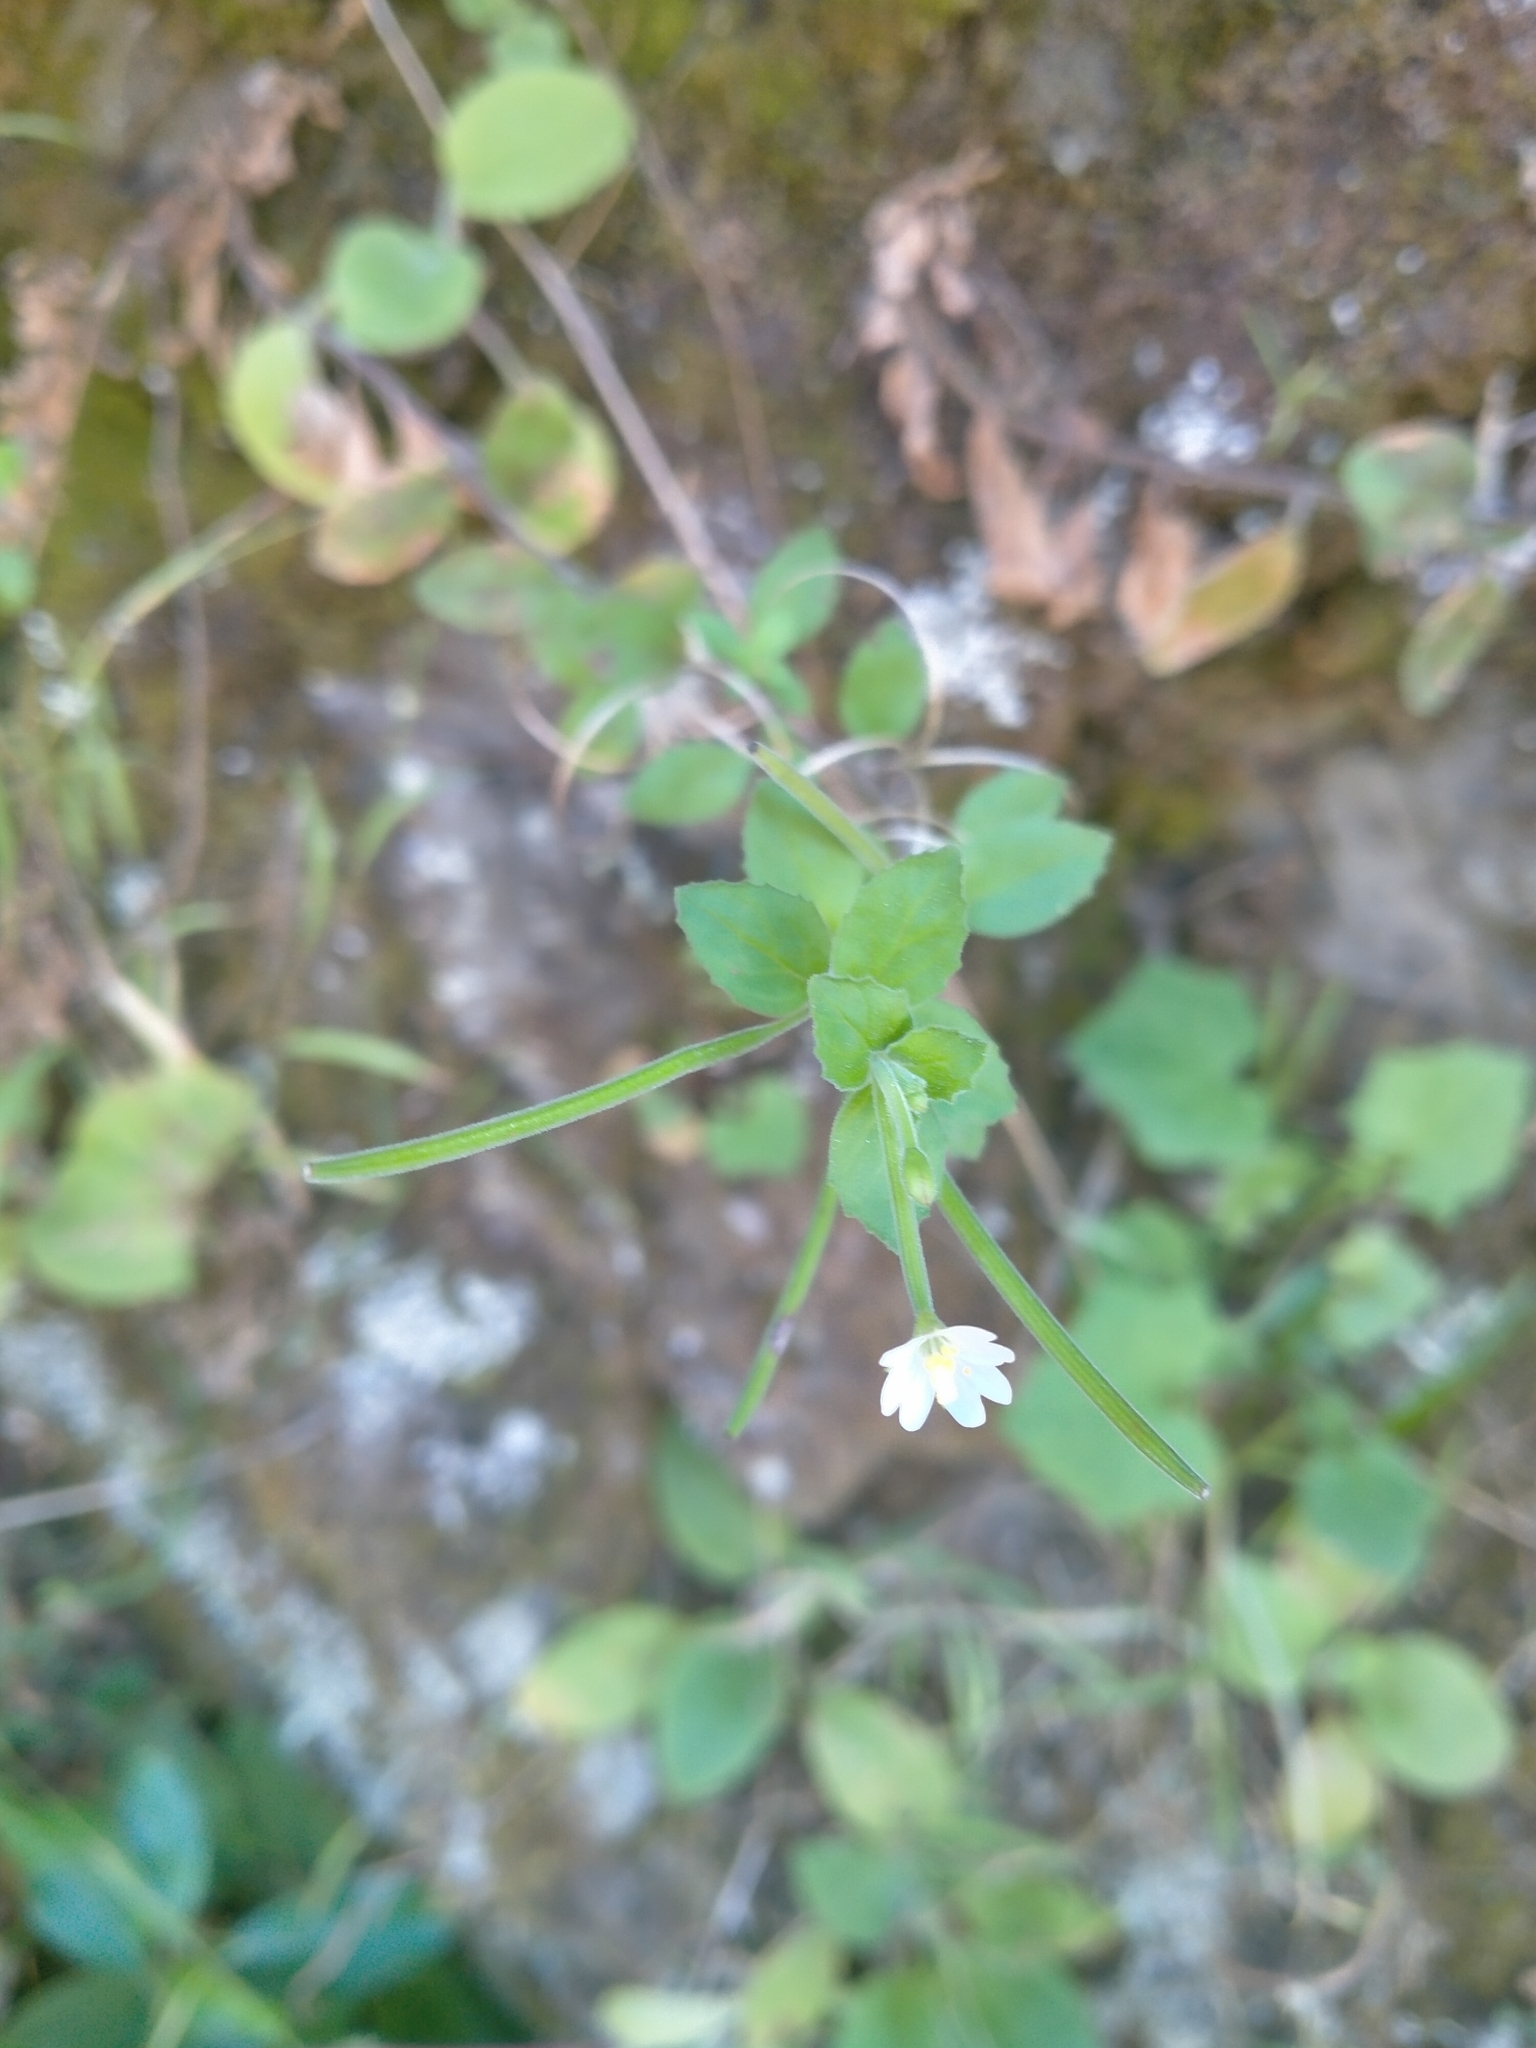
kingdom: Plantae
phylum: Tracheophyta
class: Magnoliopsida
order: Myrtales
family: Onagraceae
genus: Epilobium
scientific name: Epilobium pubens
